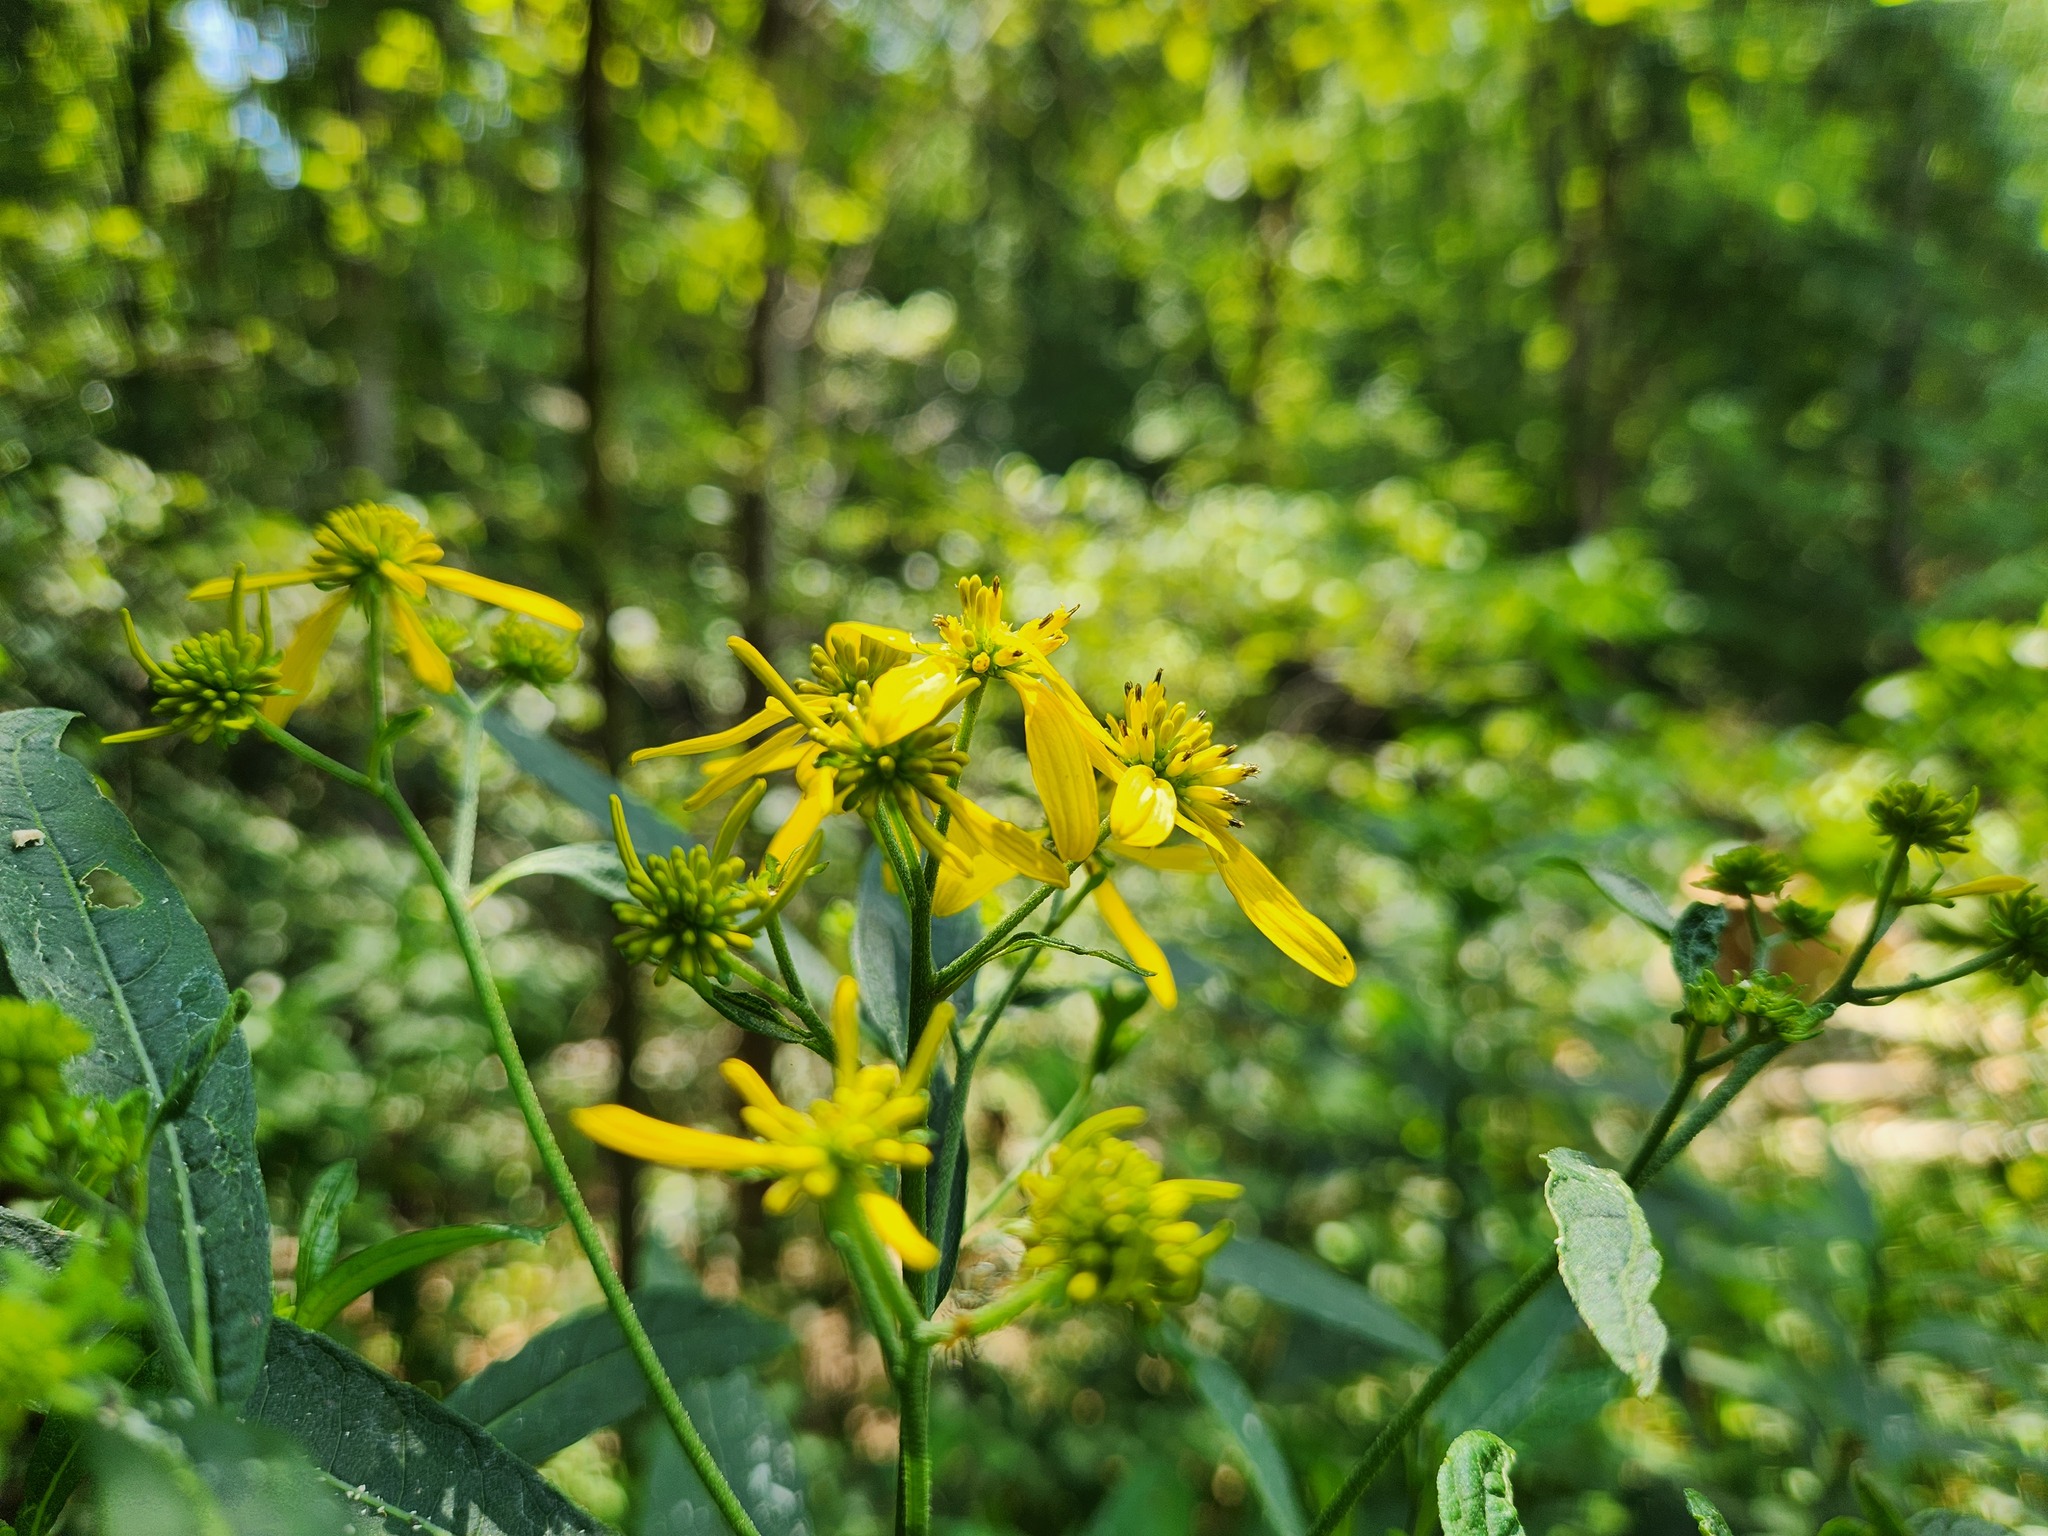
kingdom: Plantae
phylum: Tracheophyta
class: Magnoliopsida
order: Asterales
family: Asteraceae
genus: Verbesina
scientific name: Verbesina alternifolia
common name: Wingstem
